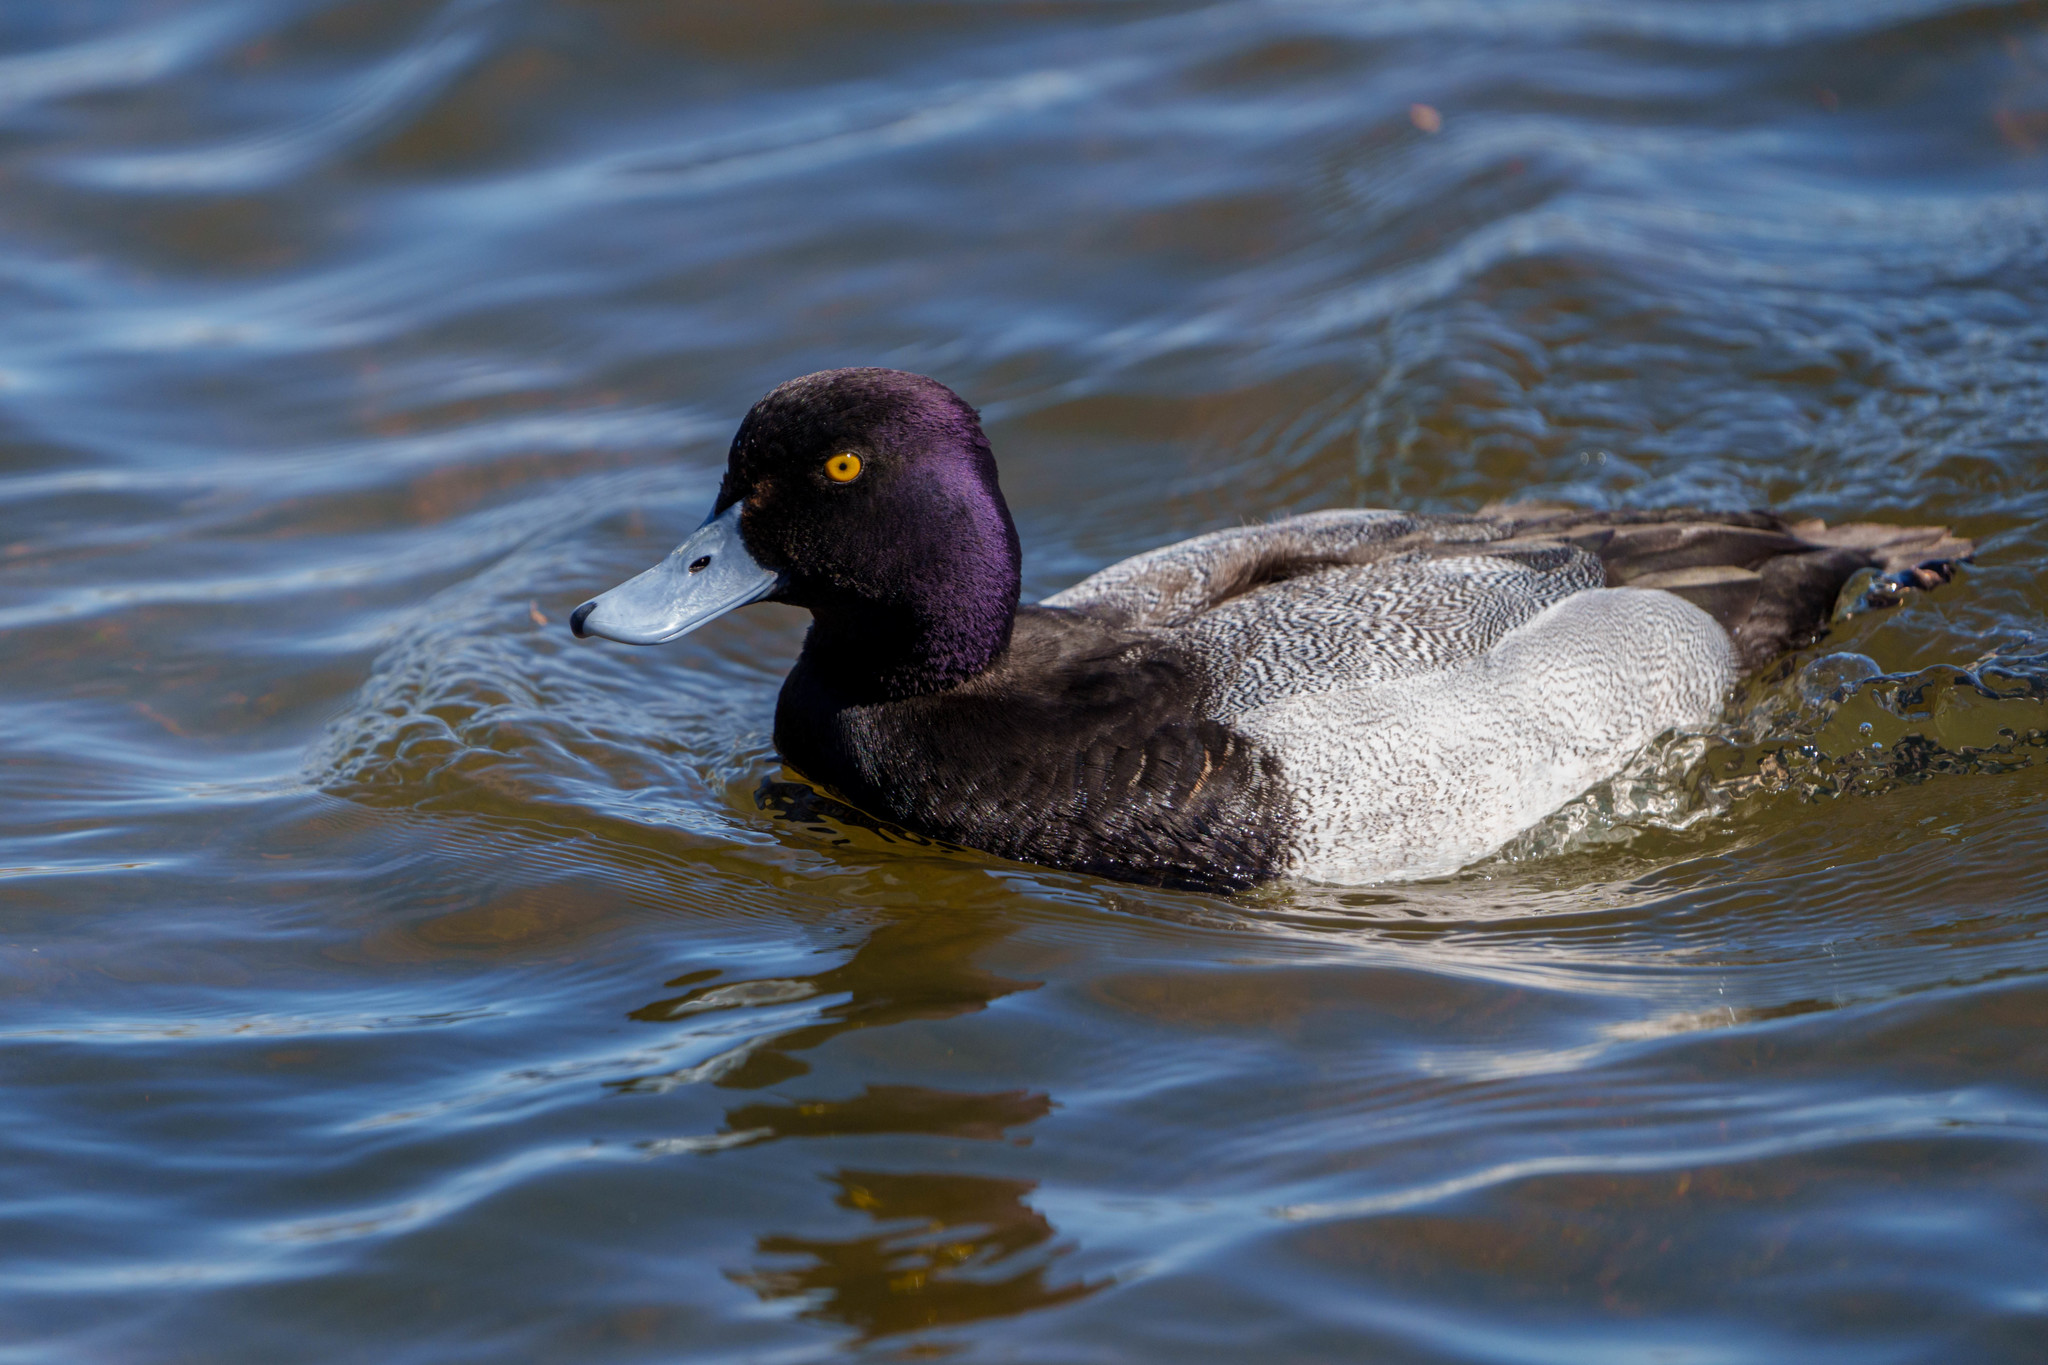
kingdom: Animalia
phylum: Chordata
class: Aves
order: Anseriformes
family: Anatidae
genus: Aythya
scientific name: Aythya affinis
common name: Lesser scaup
